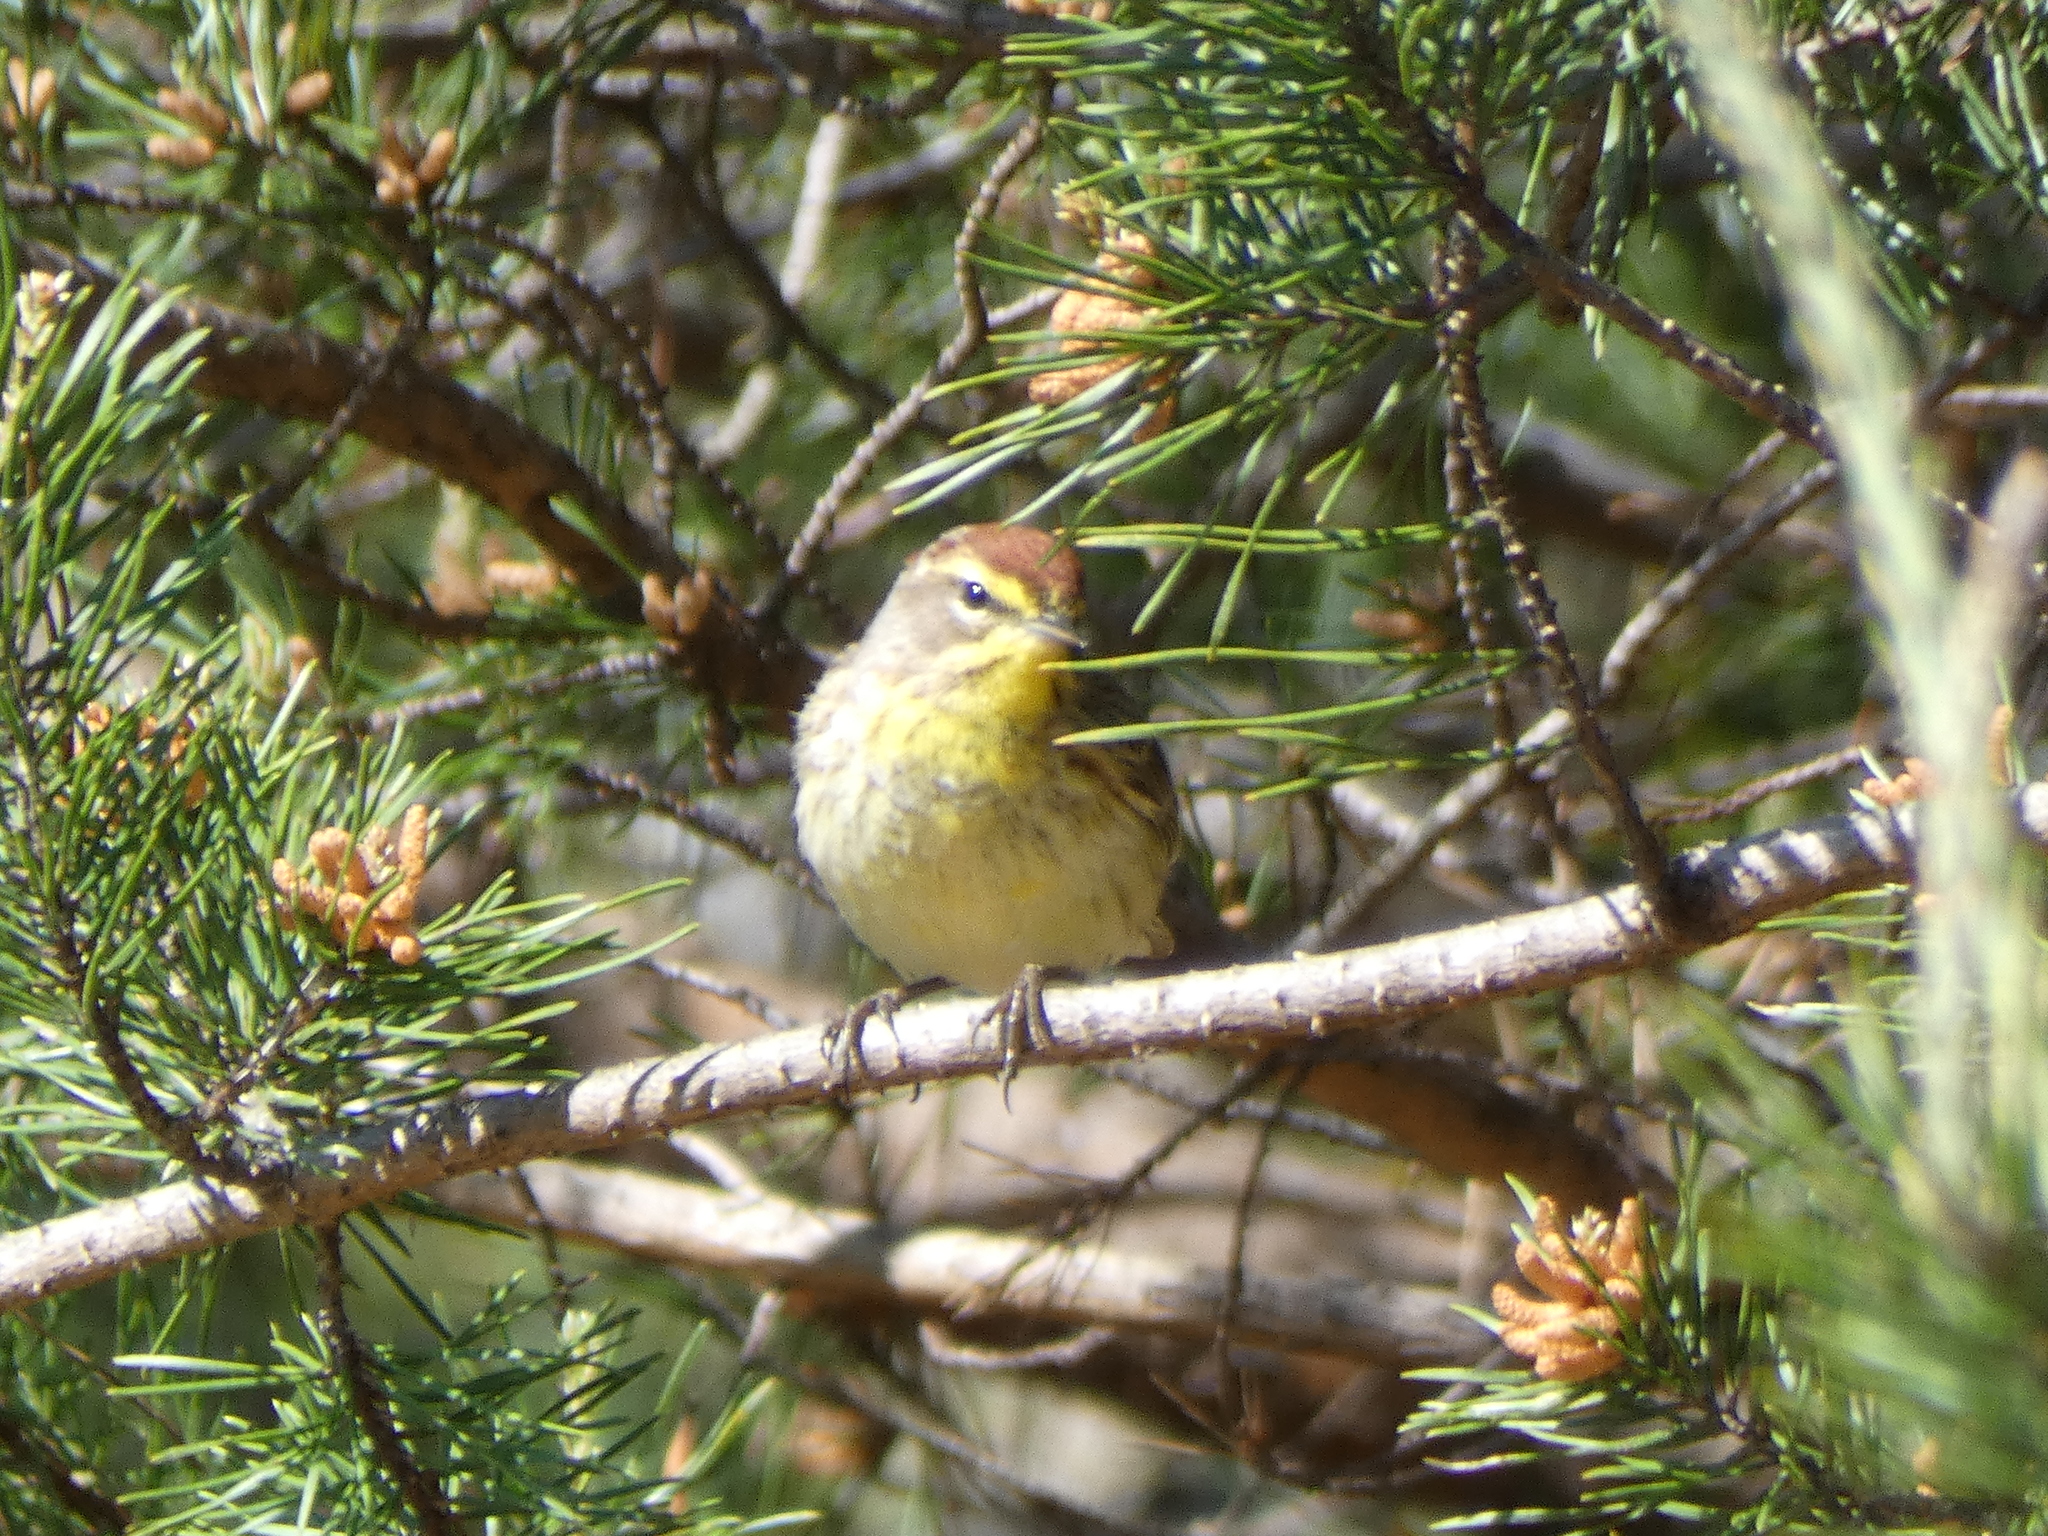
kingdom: Animalia
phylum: Chordata
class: Aves
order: Passeriformes
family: Parulidae
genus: Setophaga
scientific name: Setophaga palmarum
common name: Palm warbler
